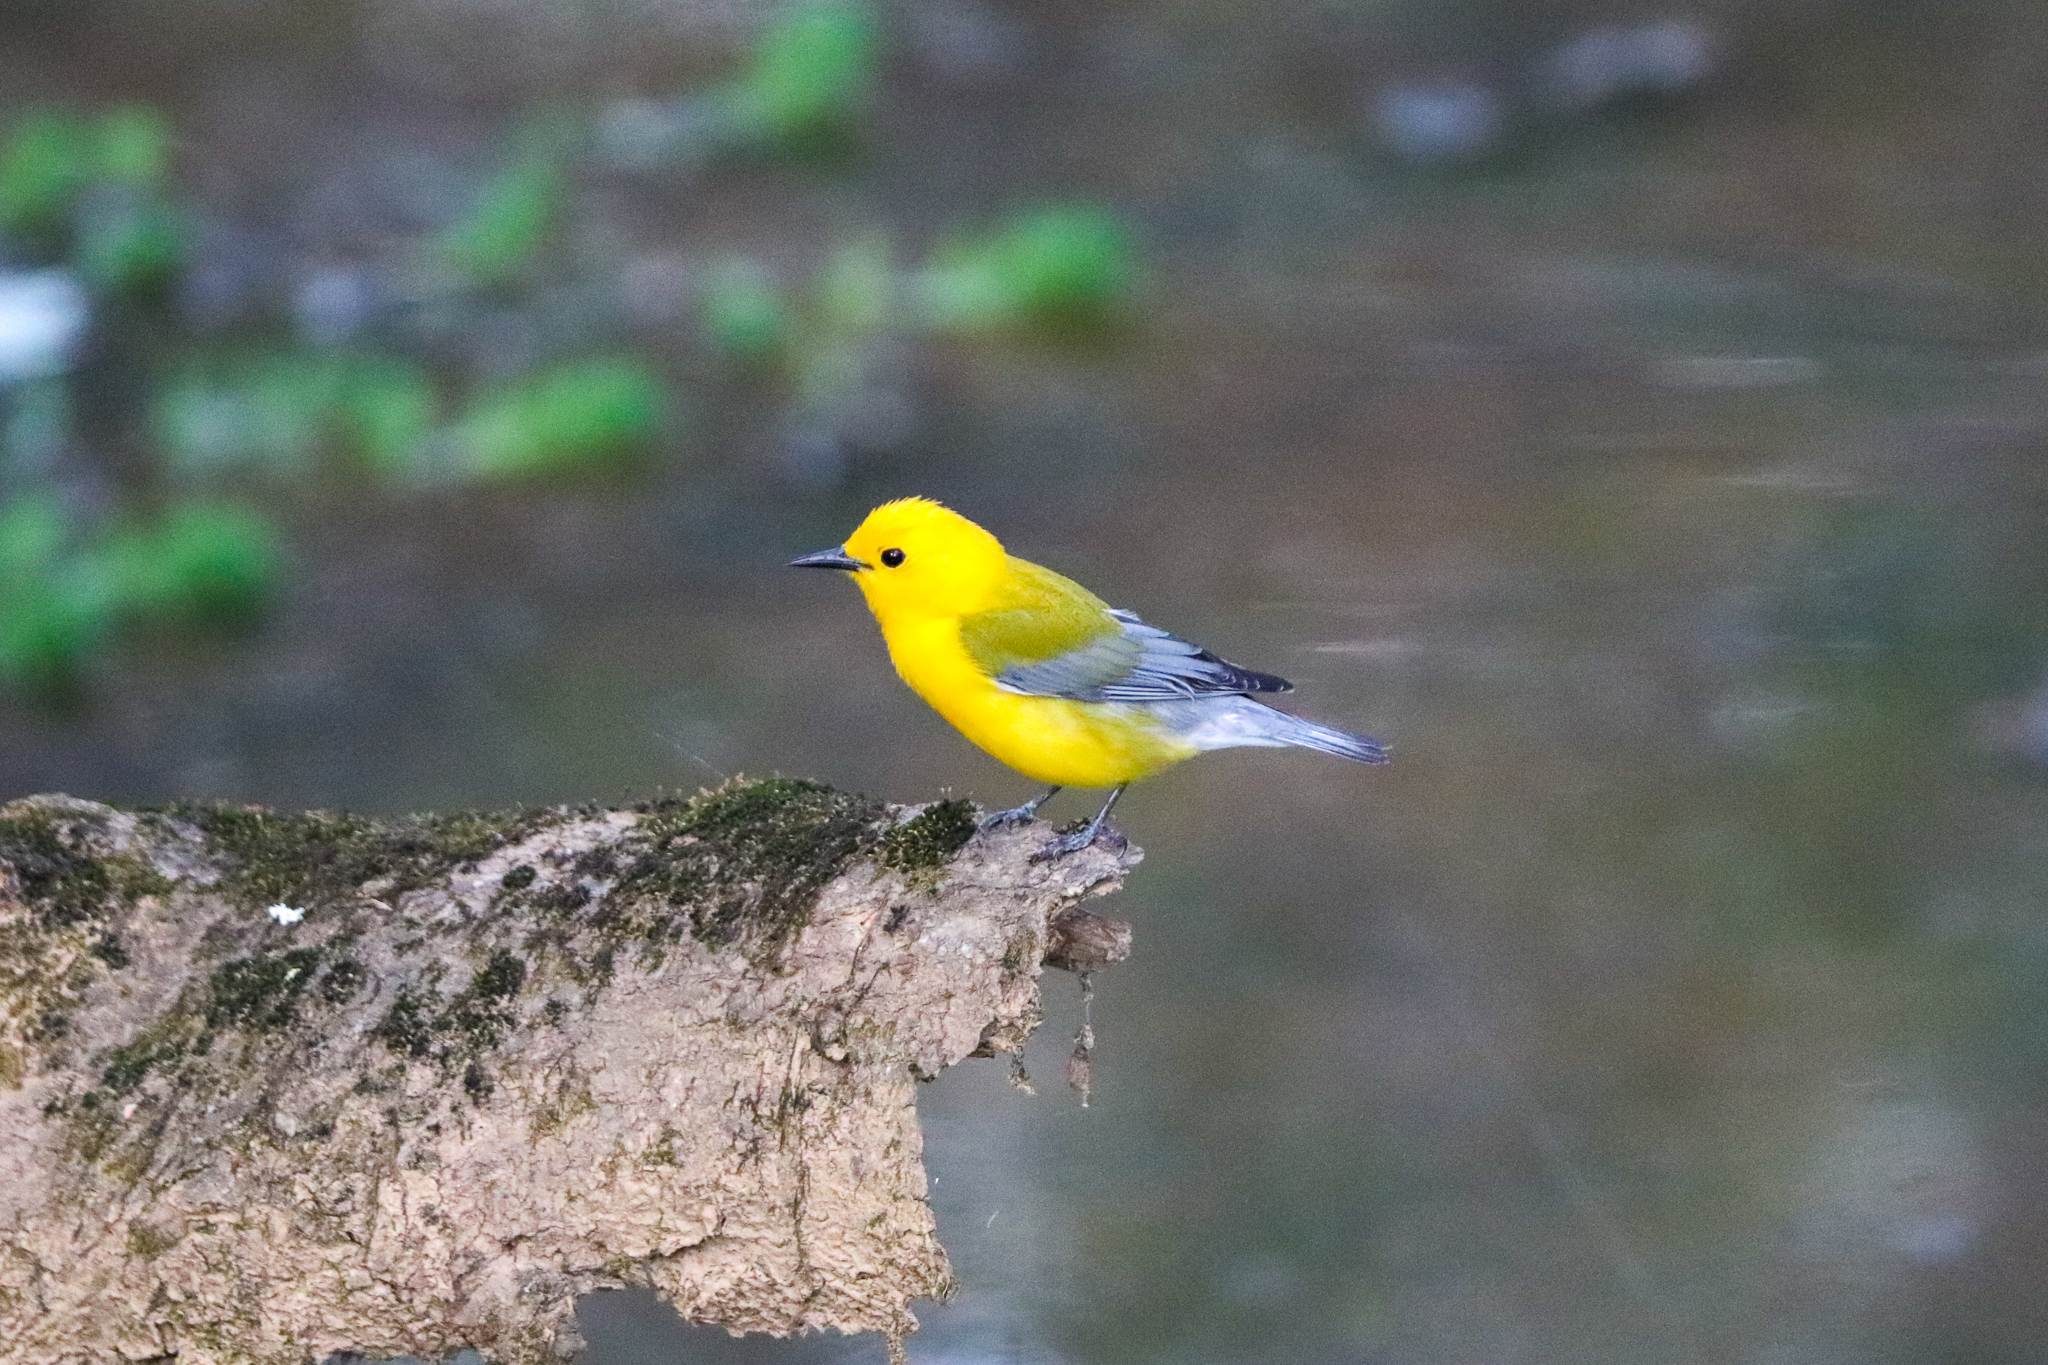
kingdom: Animalia
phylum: Chordata
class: Aves
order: Passeriformes
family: Parulidae
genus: Protonotaria
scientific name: Protonotaria citrea
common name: Prothonotary warbler
